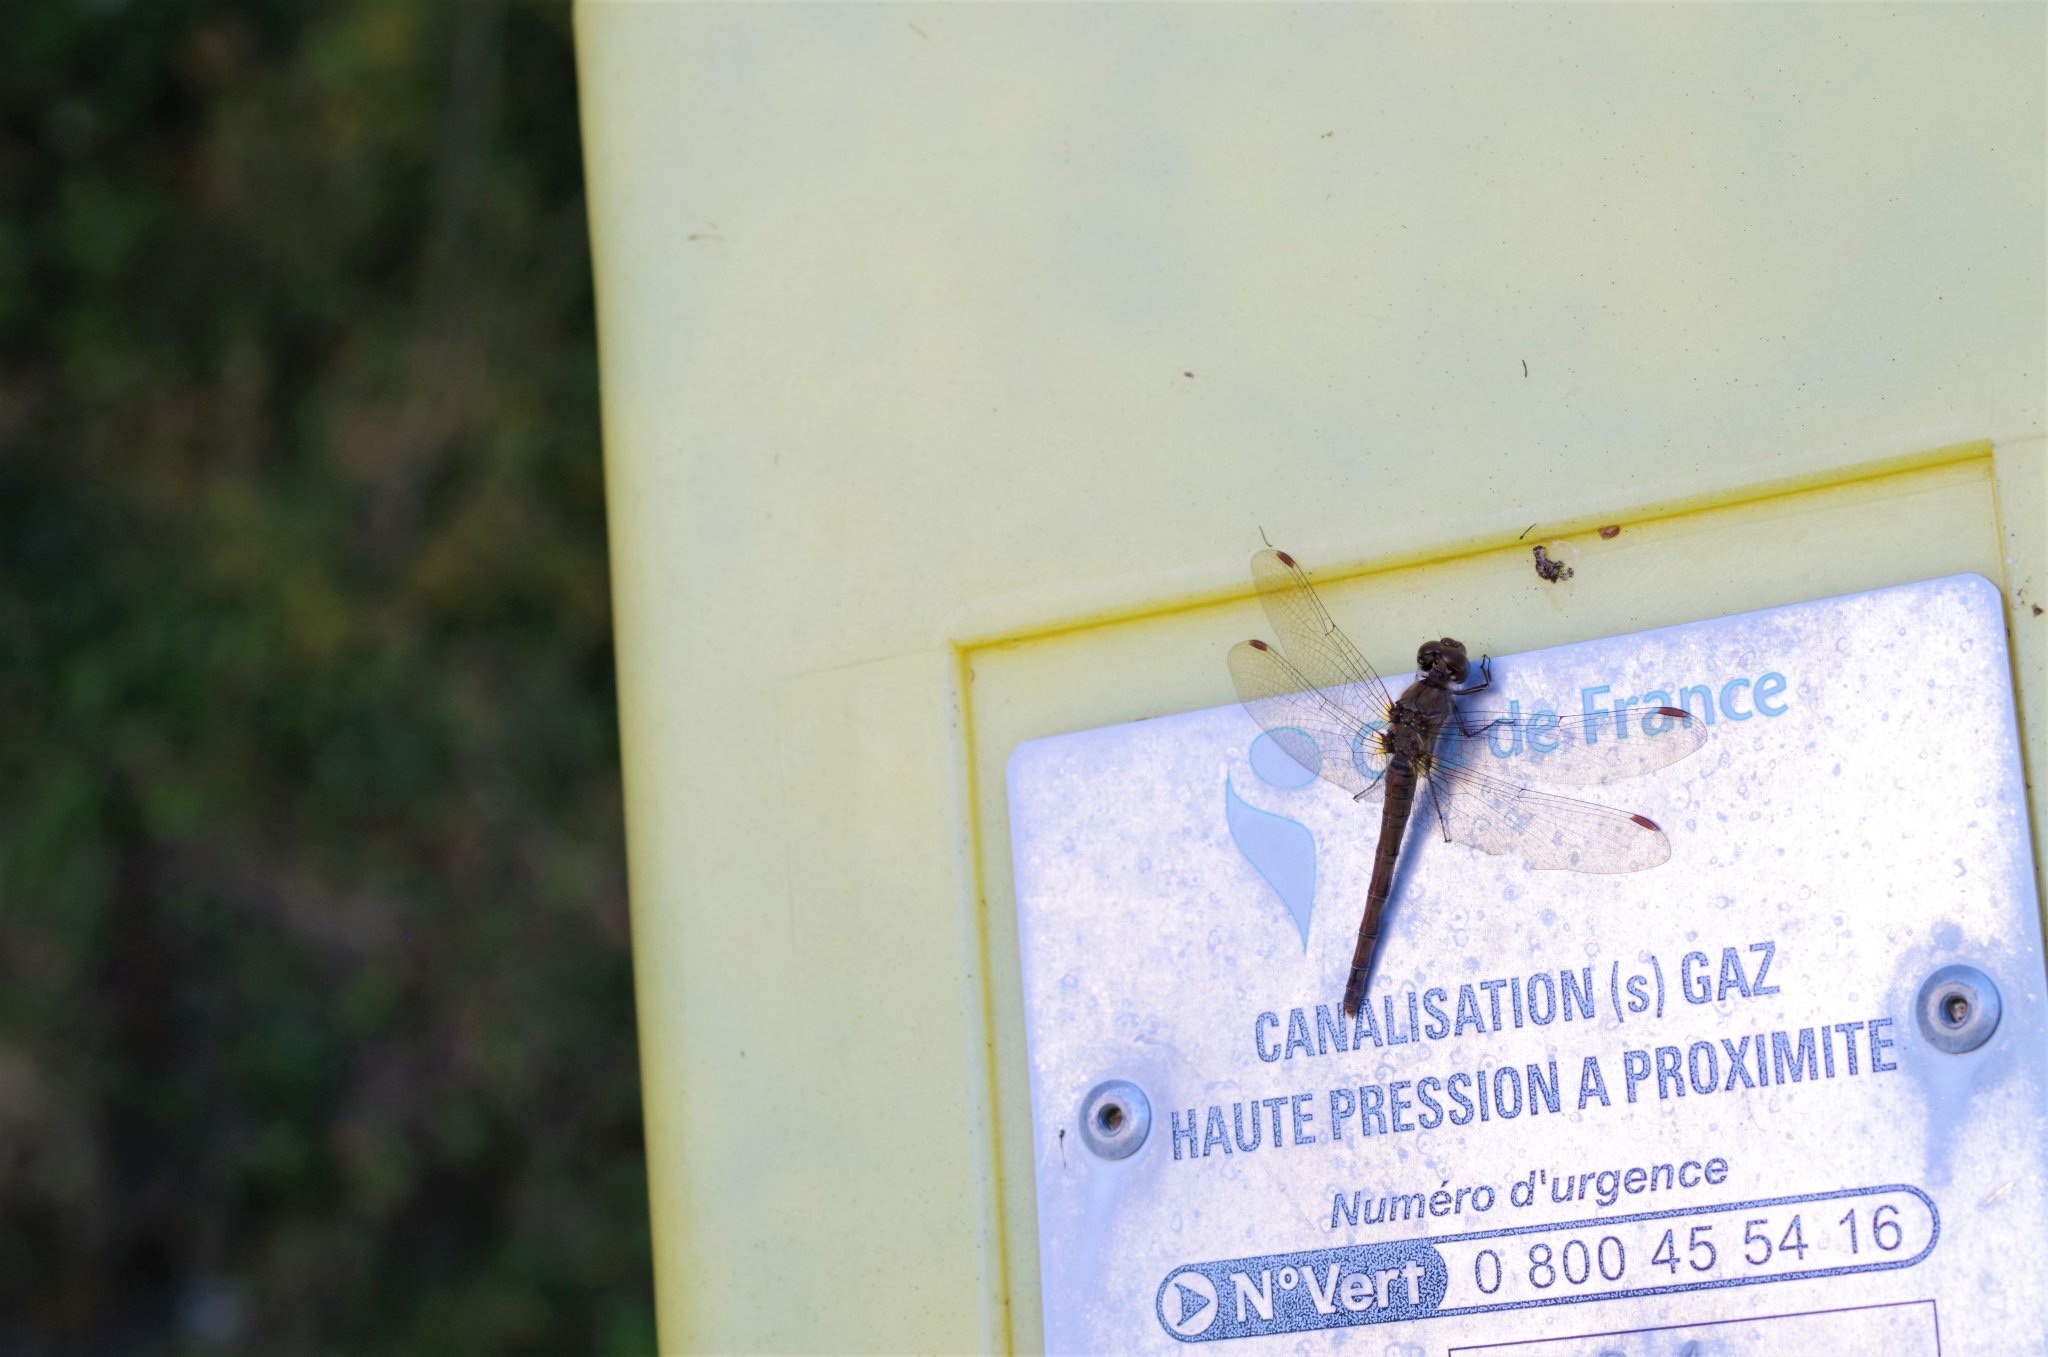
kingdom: Animalia
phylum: Arthropoda
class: Insecta
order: Odonata
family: Libellulidae
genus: Sympetrum
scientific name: Sympetrum striolatum
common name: Common darter
